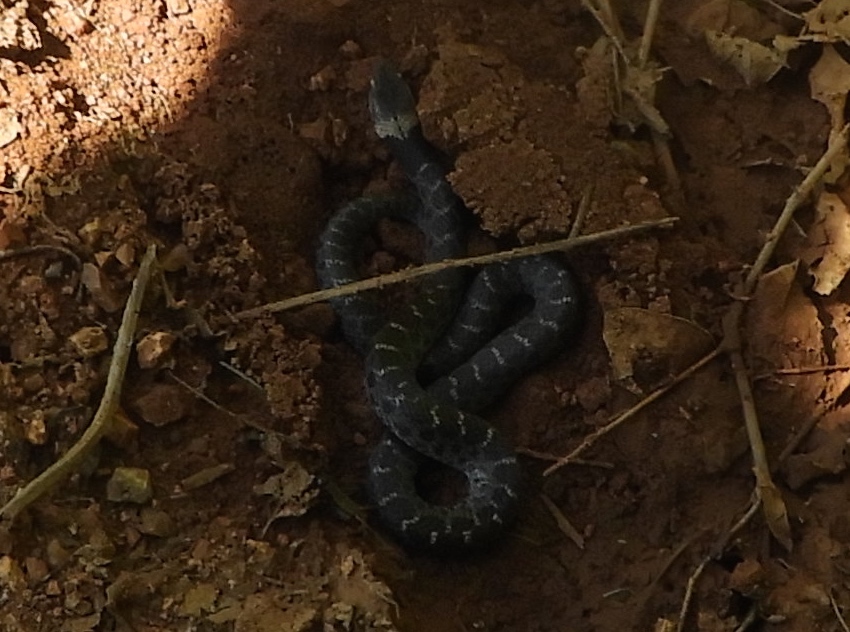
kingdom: Animalia
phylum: Chordata
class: Squamata
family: Colubridae
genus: Hypsiglena
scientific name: Hypsiglena torquata
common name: Night snake
